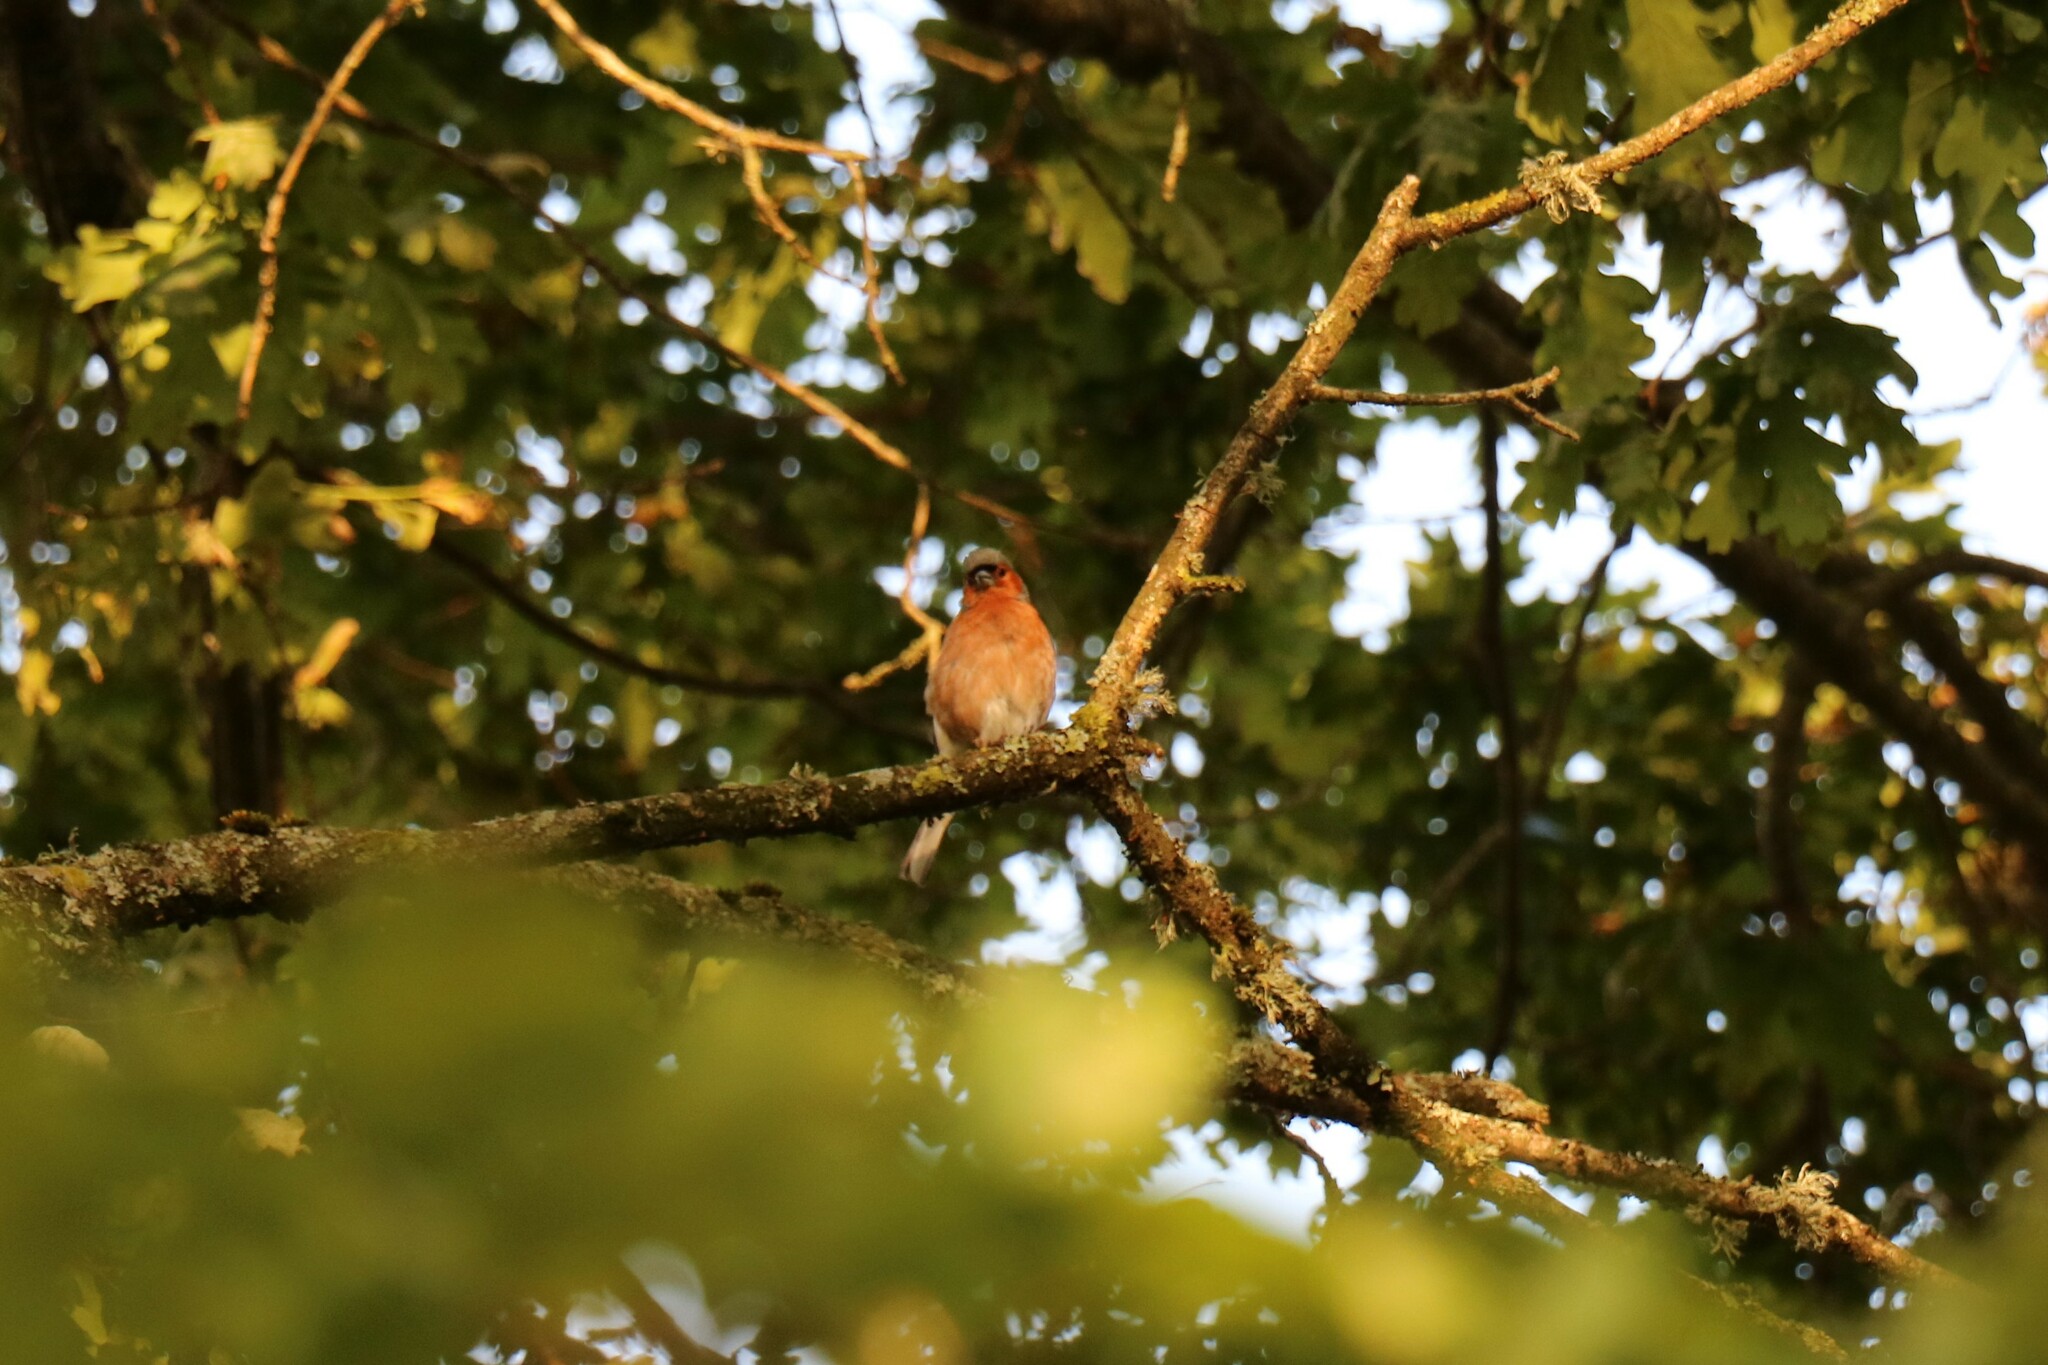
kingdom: Animalia
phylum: Chordata
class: Aves
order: Passeriformes
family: Fringillidae
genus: Fringilla
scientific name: Fringilla coelebs
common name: Common chaffinch
